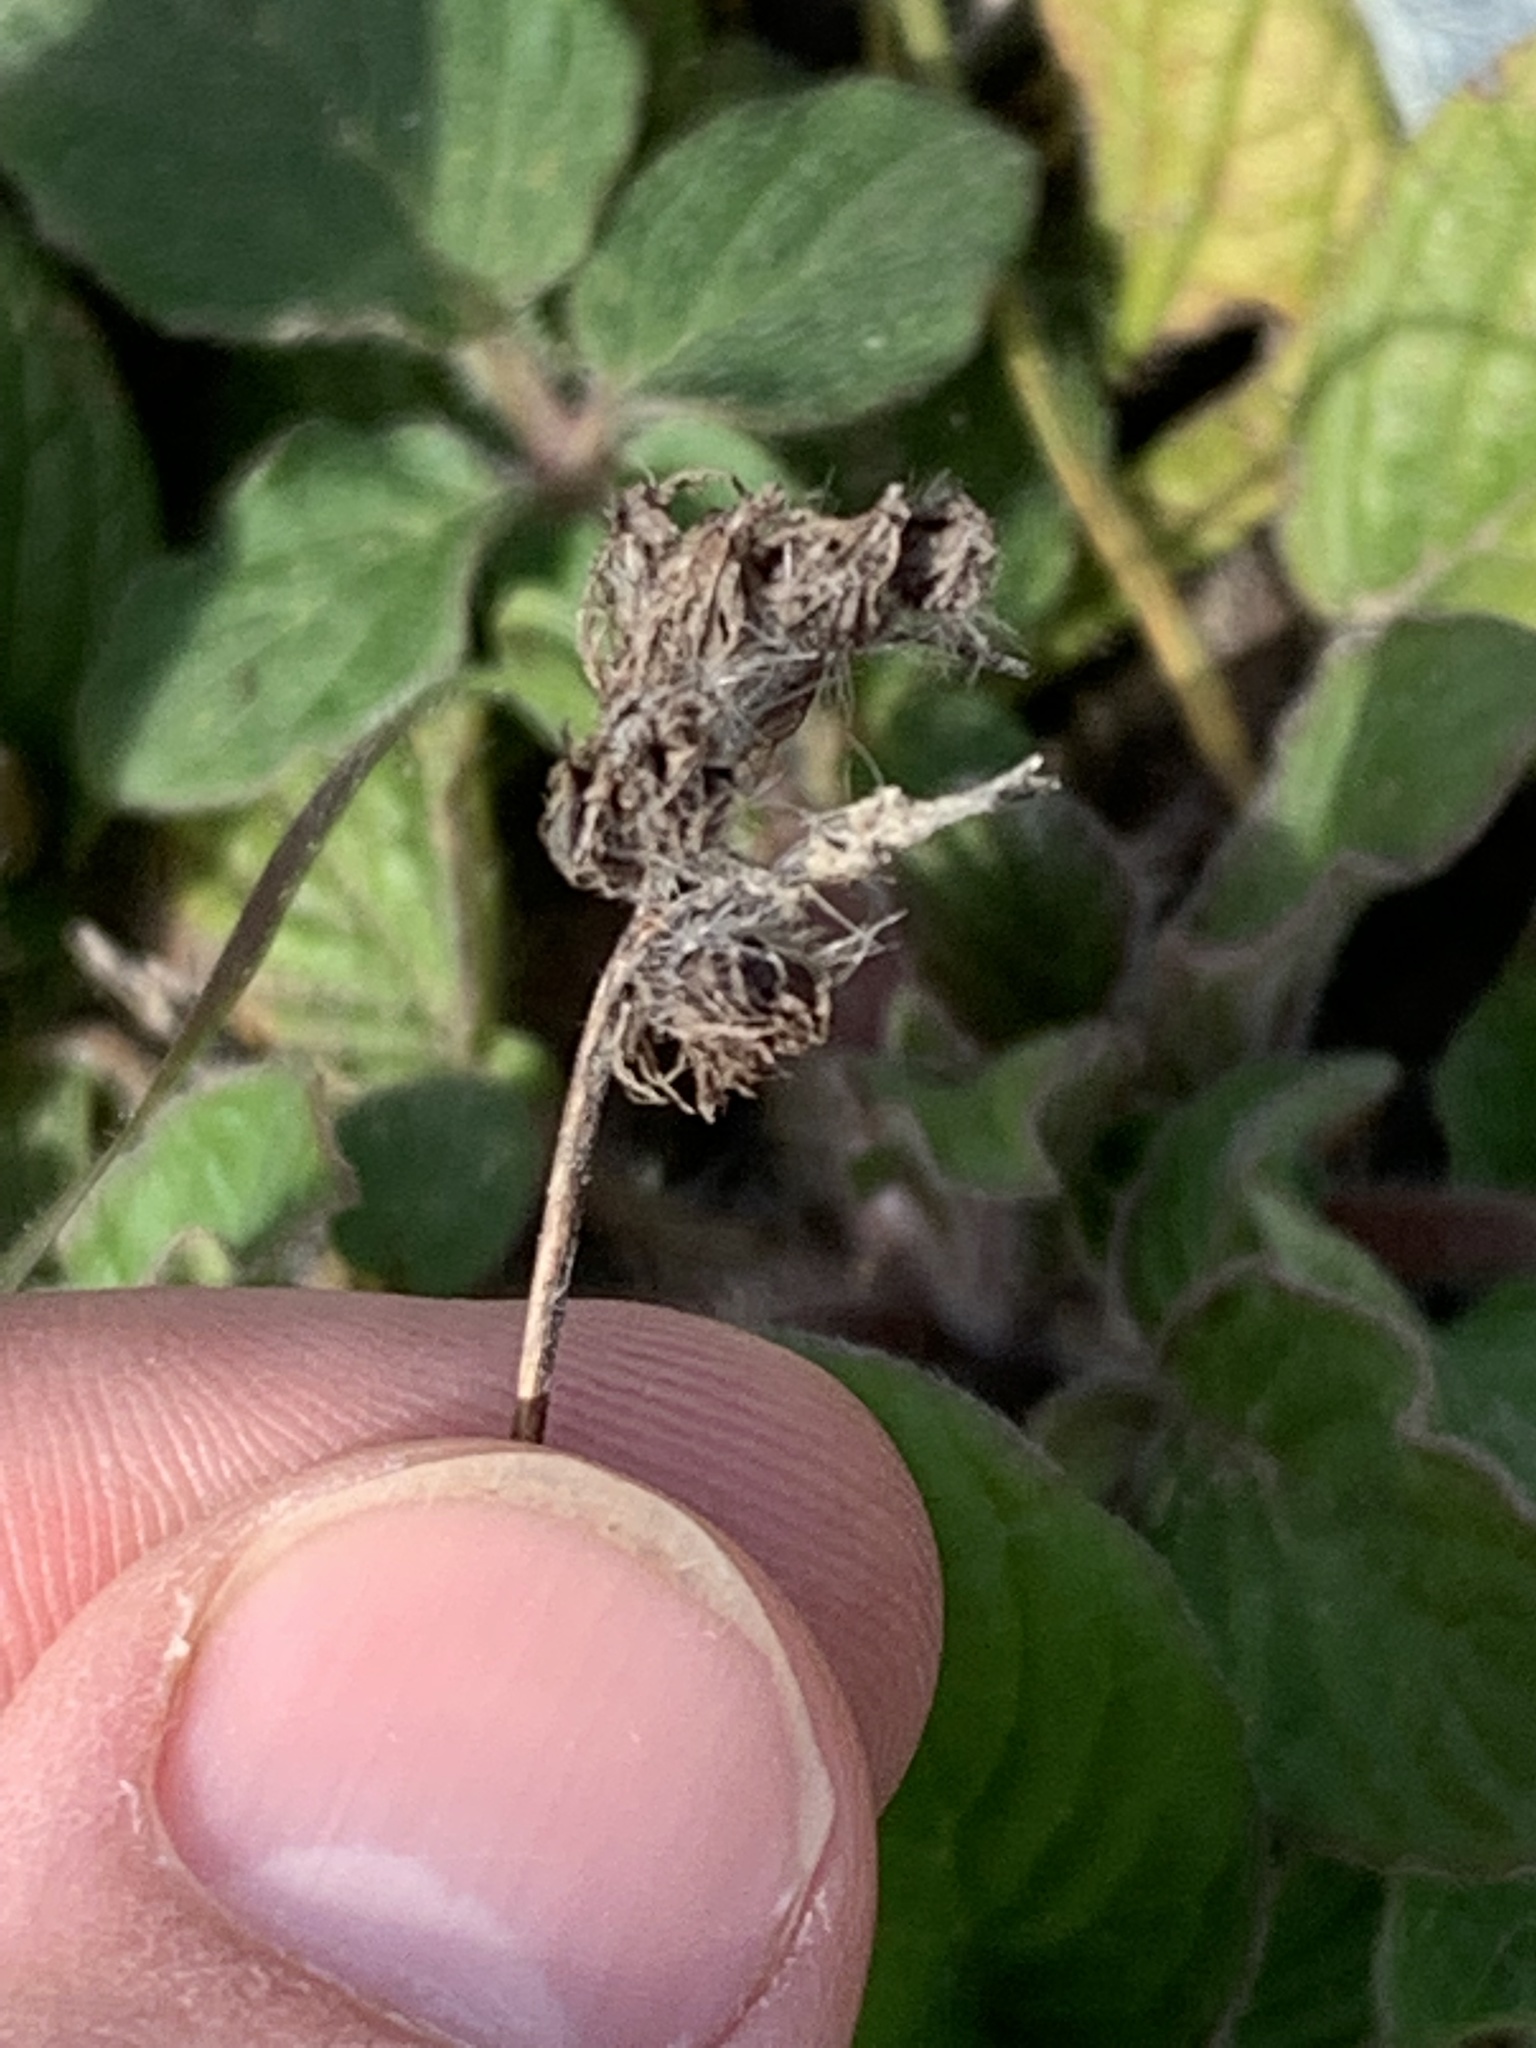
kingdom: Plantae
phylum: Tracheophyta
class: Magnoliopsida
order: Boraginales
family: Hydrophyllaceae
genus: Phacelia
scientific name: Phacelia nemoralis
